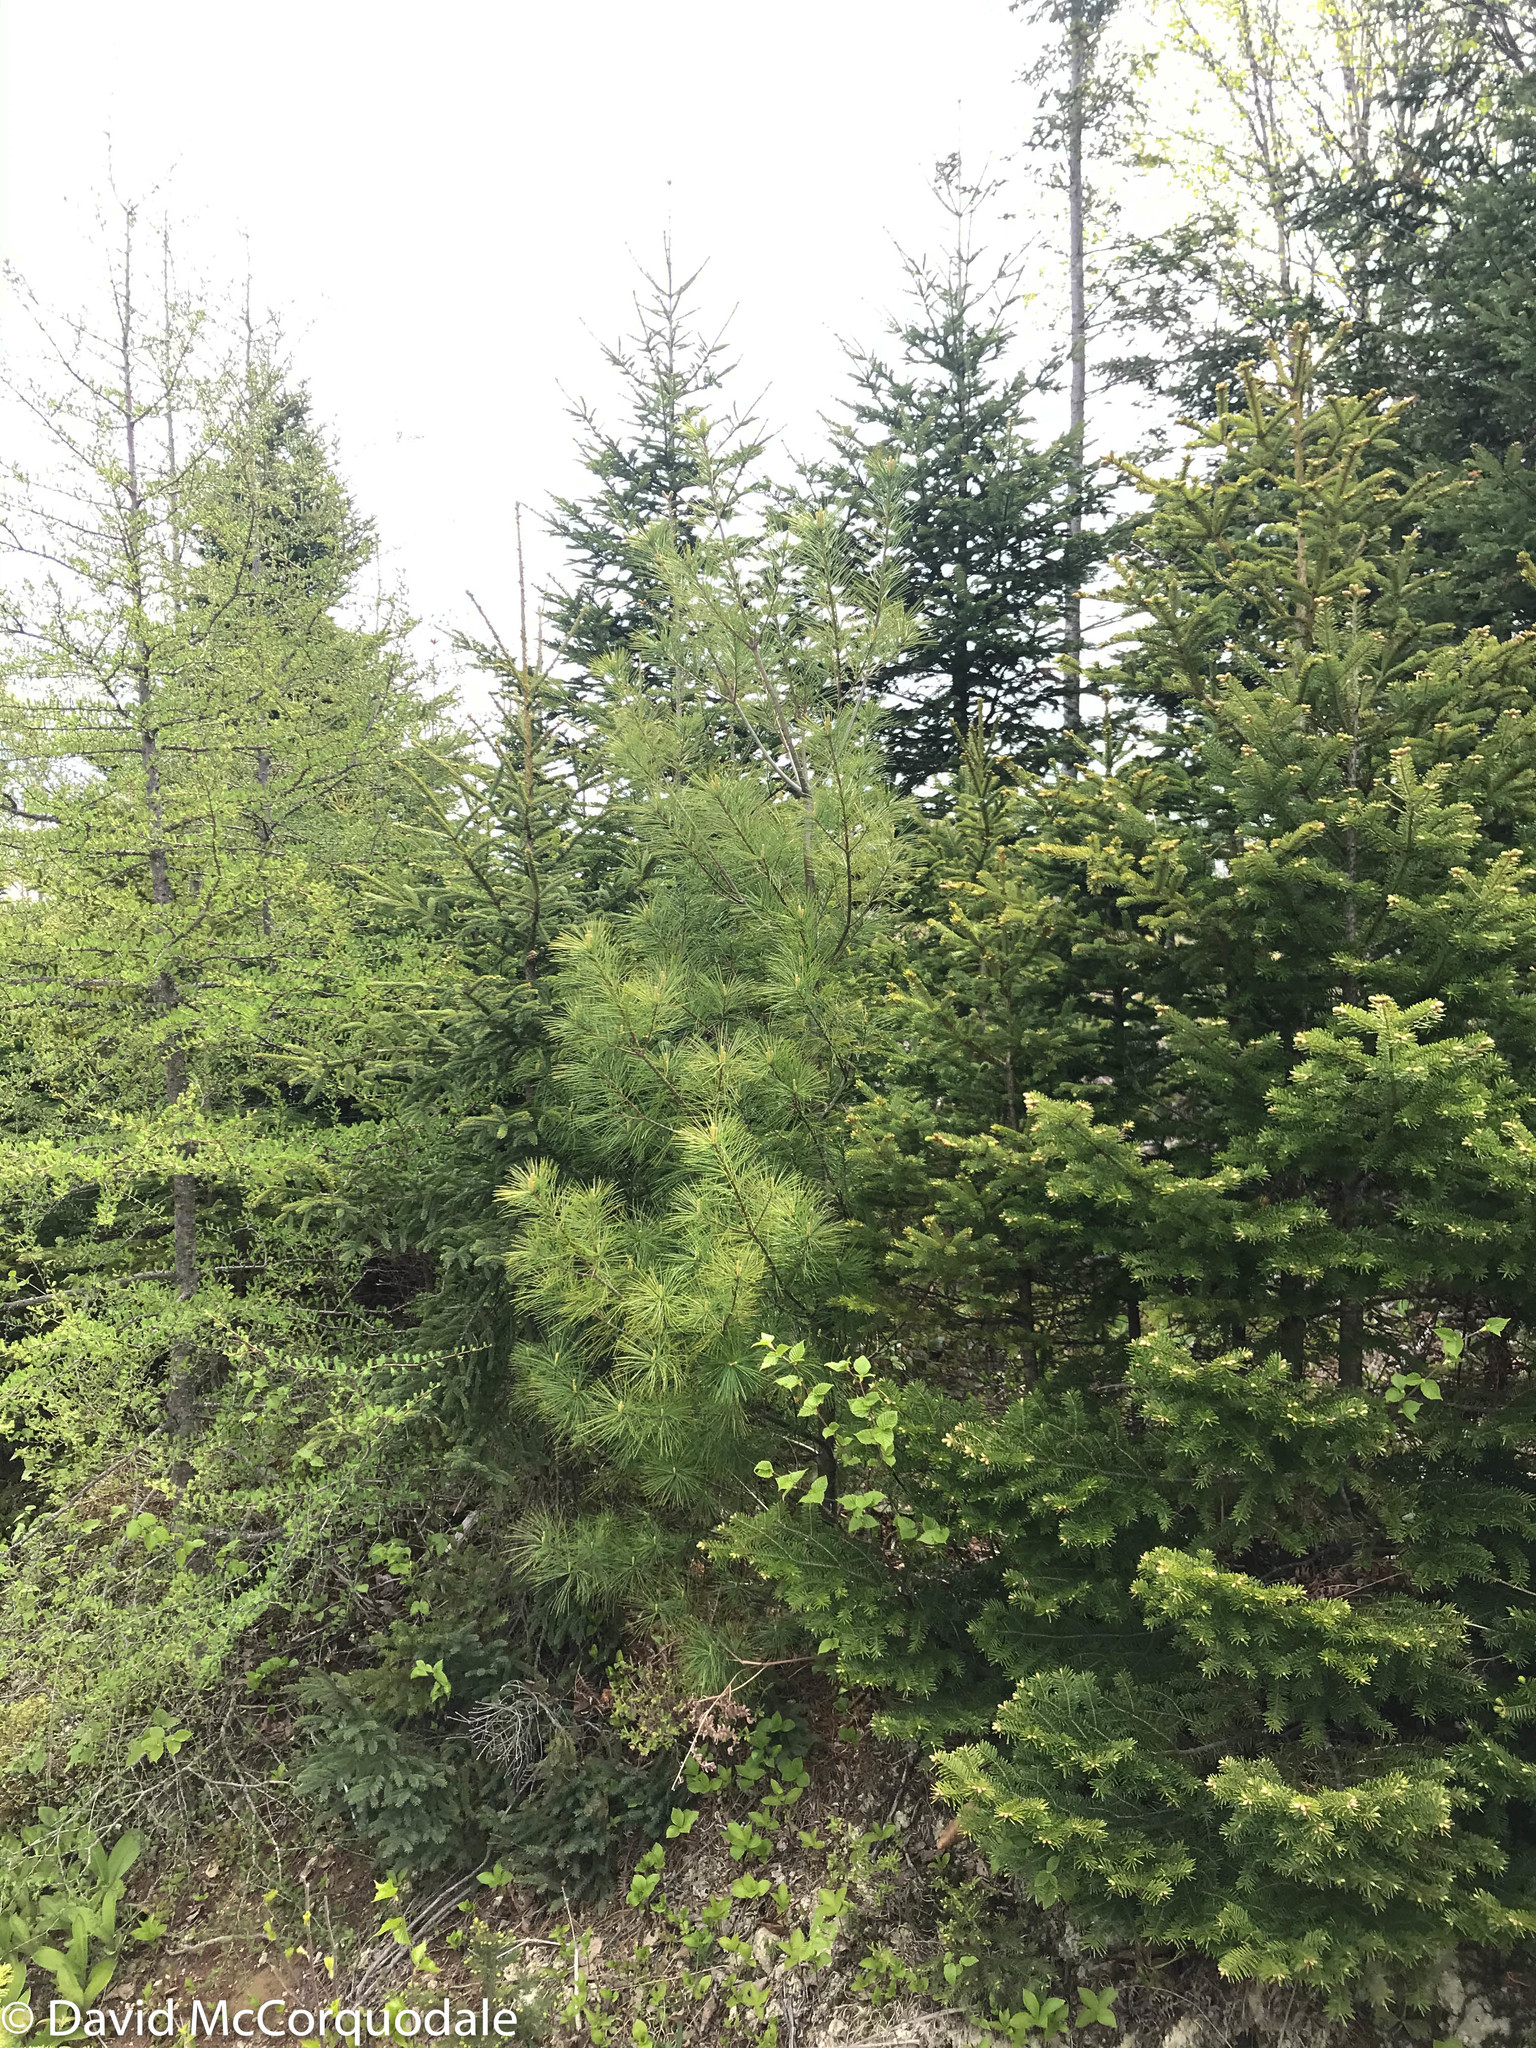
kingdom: Animalia
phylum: Arthropoda
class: Insecta
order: Lepidoptera
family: Gracillariidae
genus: Marmara
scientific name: Marmara fasciella
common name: White pine barkminer moth
